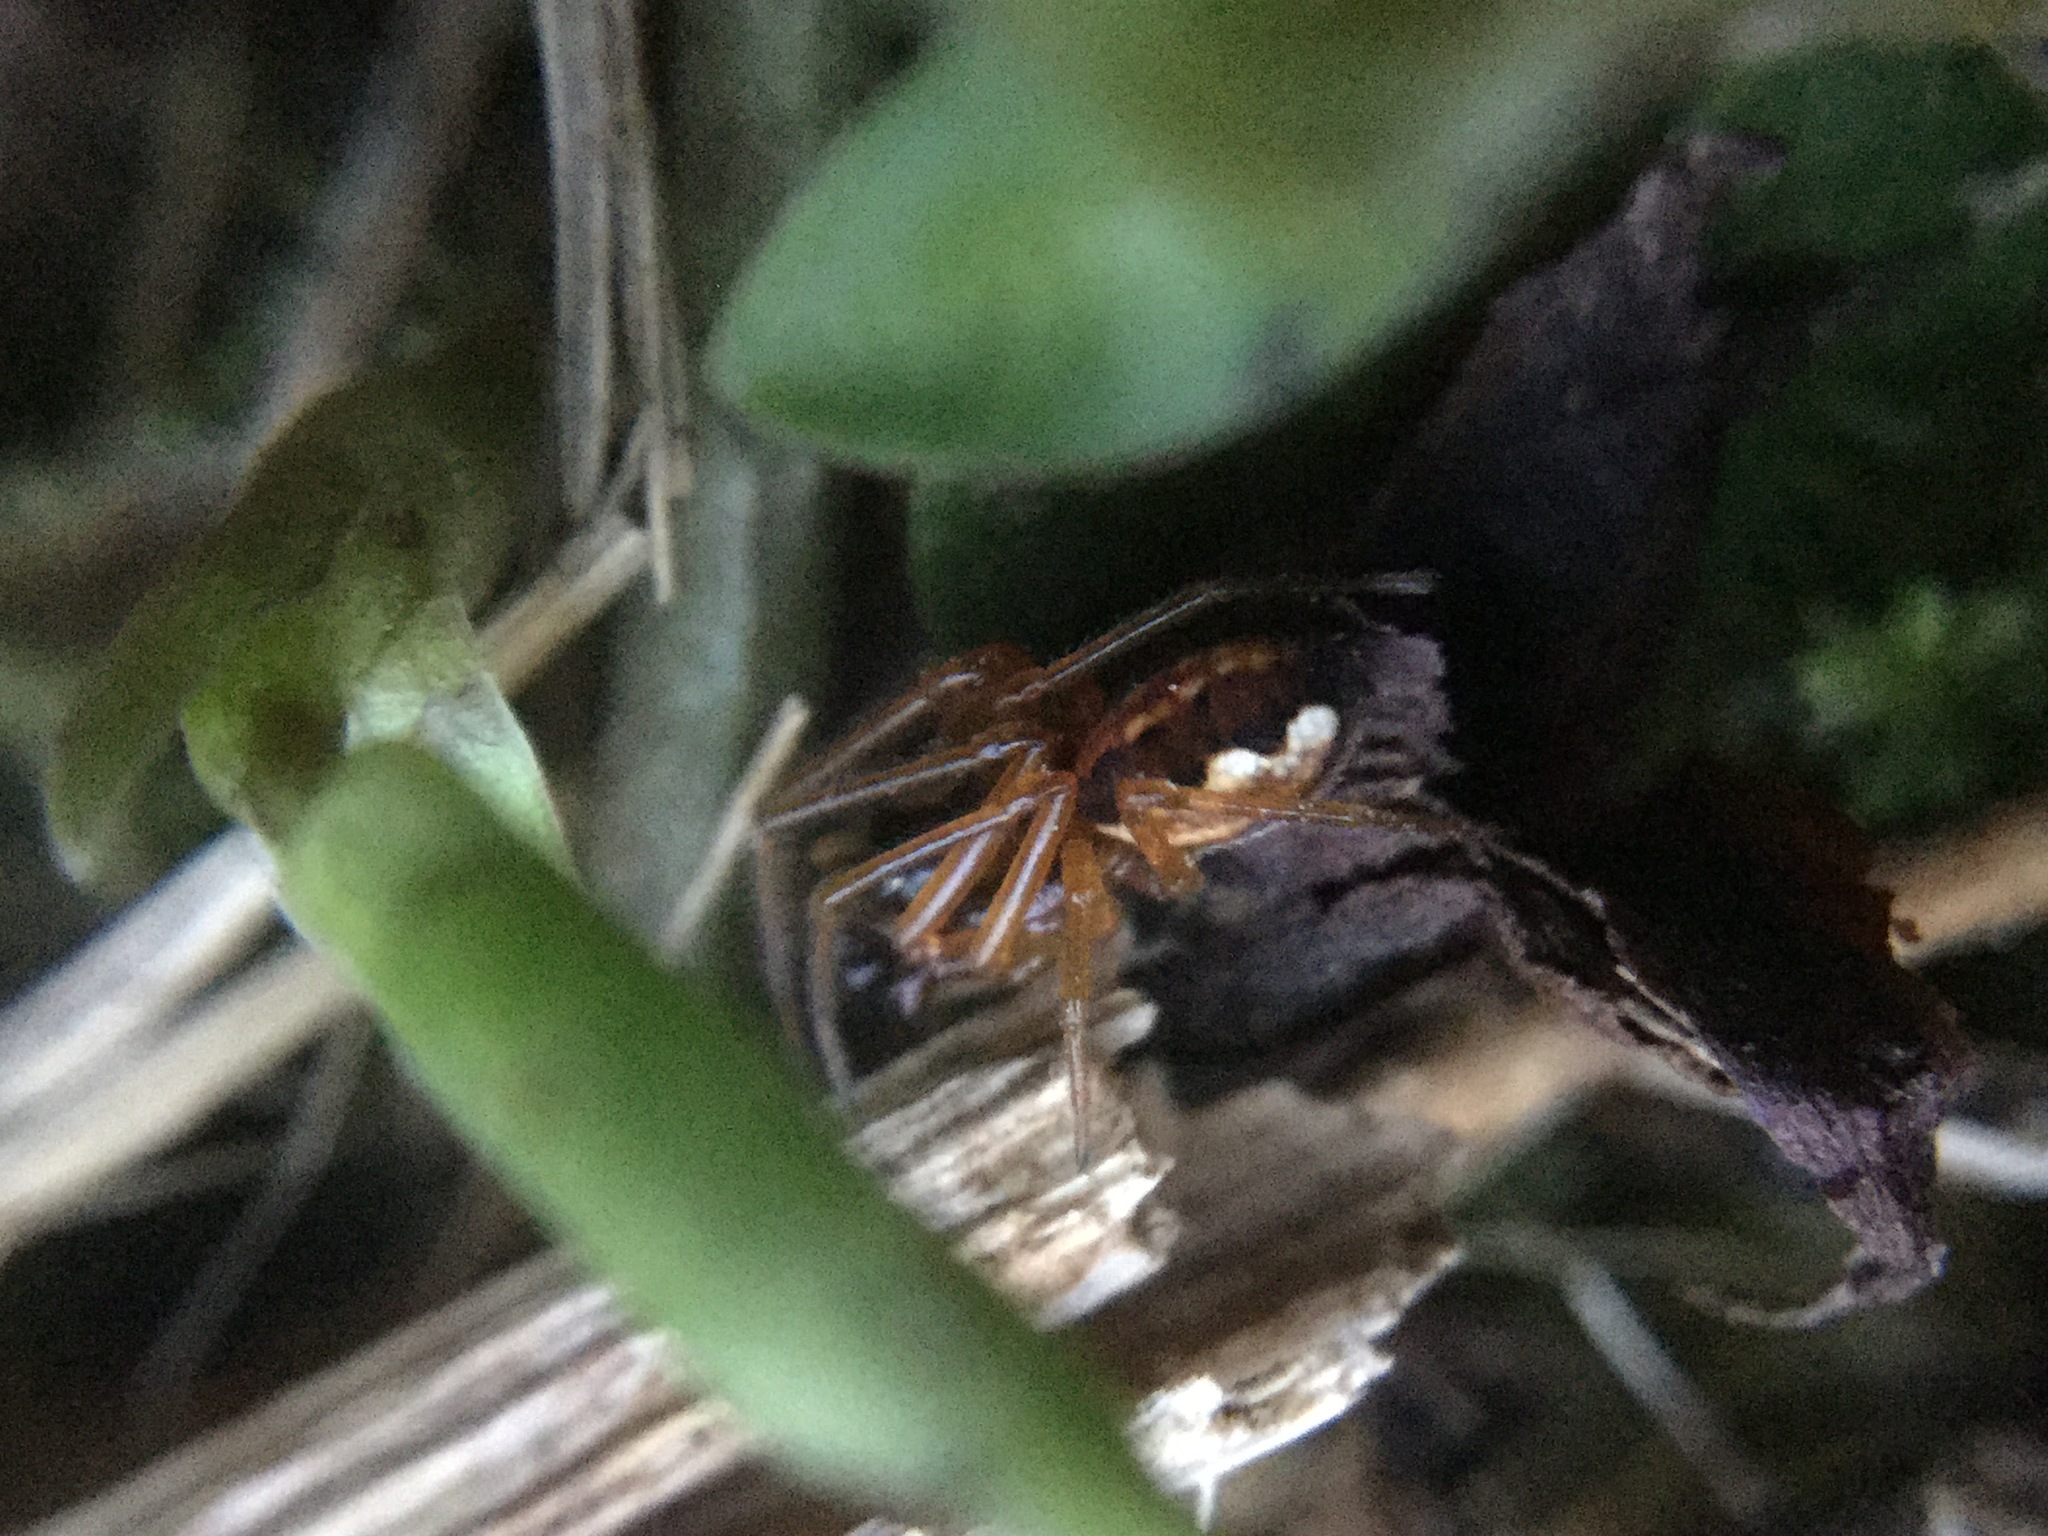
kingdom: Animalia
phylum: Arthropoda
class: Arachnida
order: Araneae
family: Tetragnathidae
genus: Pachygnatha
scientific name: Pachygnatha autumnalis
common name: Big-eyed thick-jawed spider
